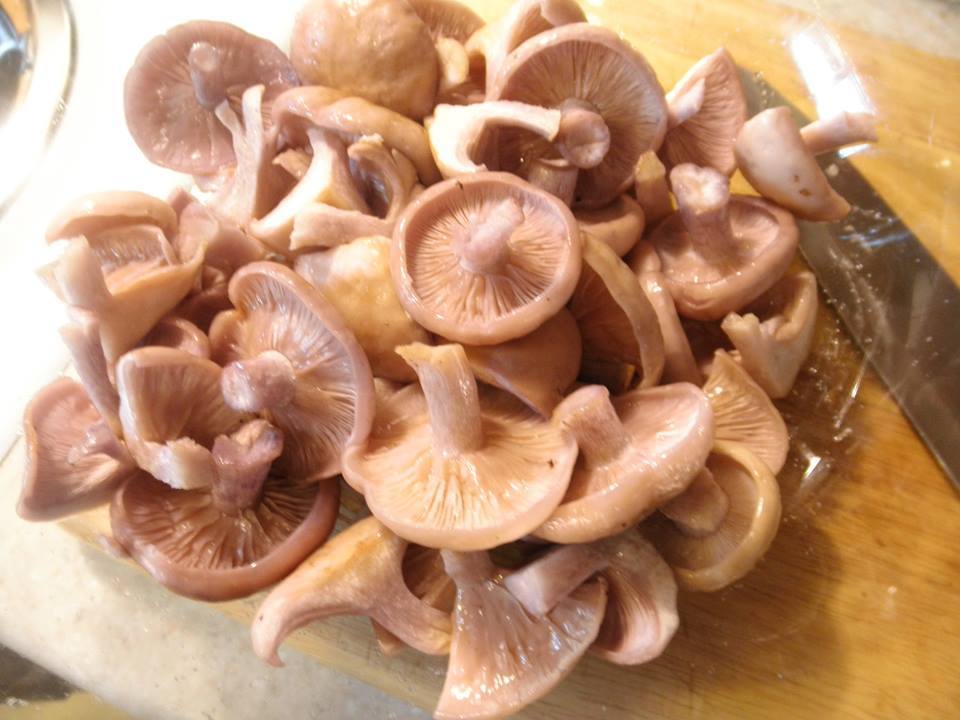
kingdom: Fungi
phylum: Basidiomycota
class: Agaricomycetes
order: Agaricales
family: Tricholomataceae
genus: Collybia
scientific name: Collybia
